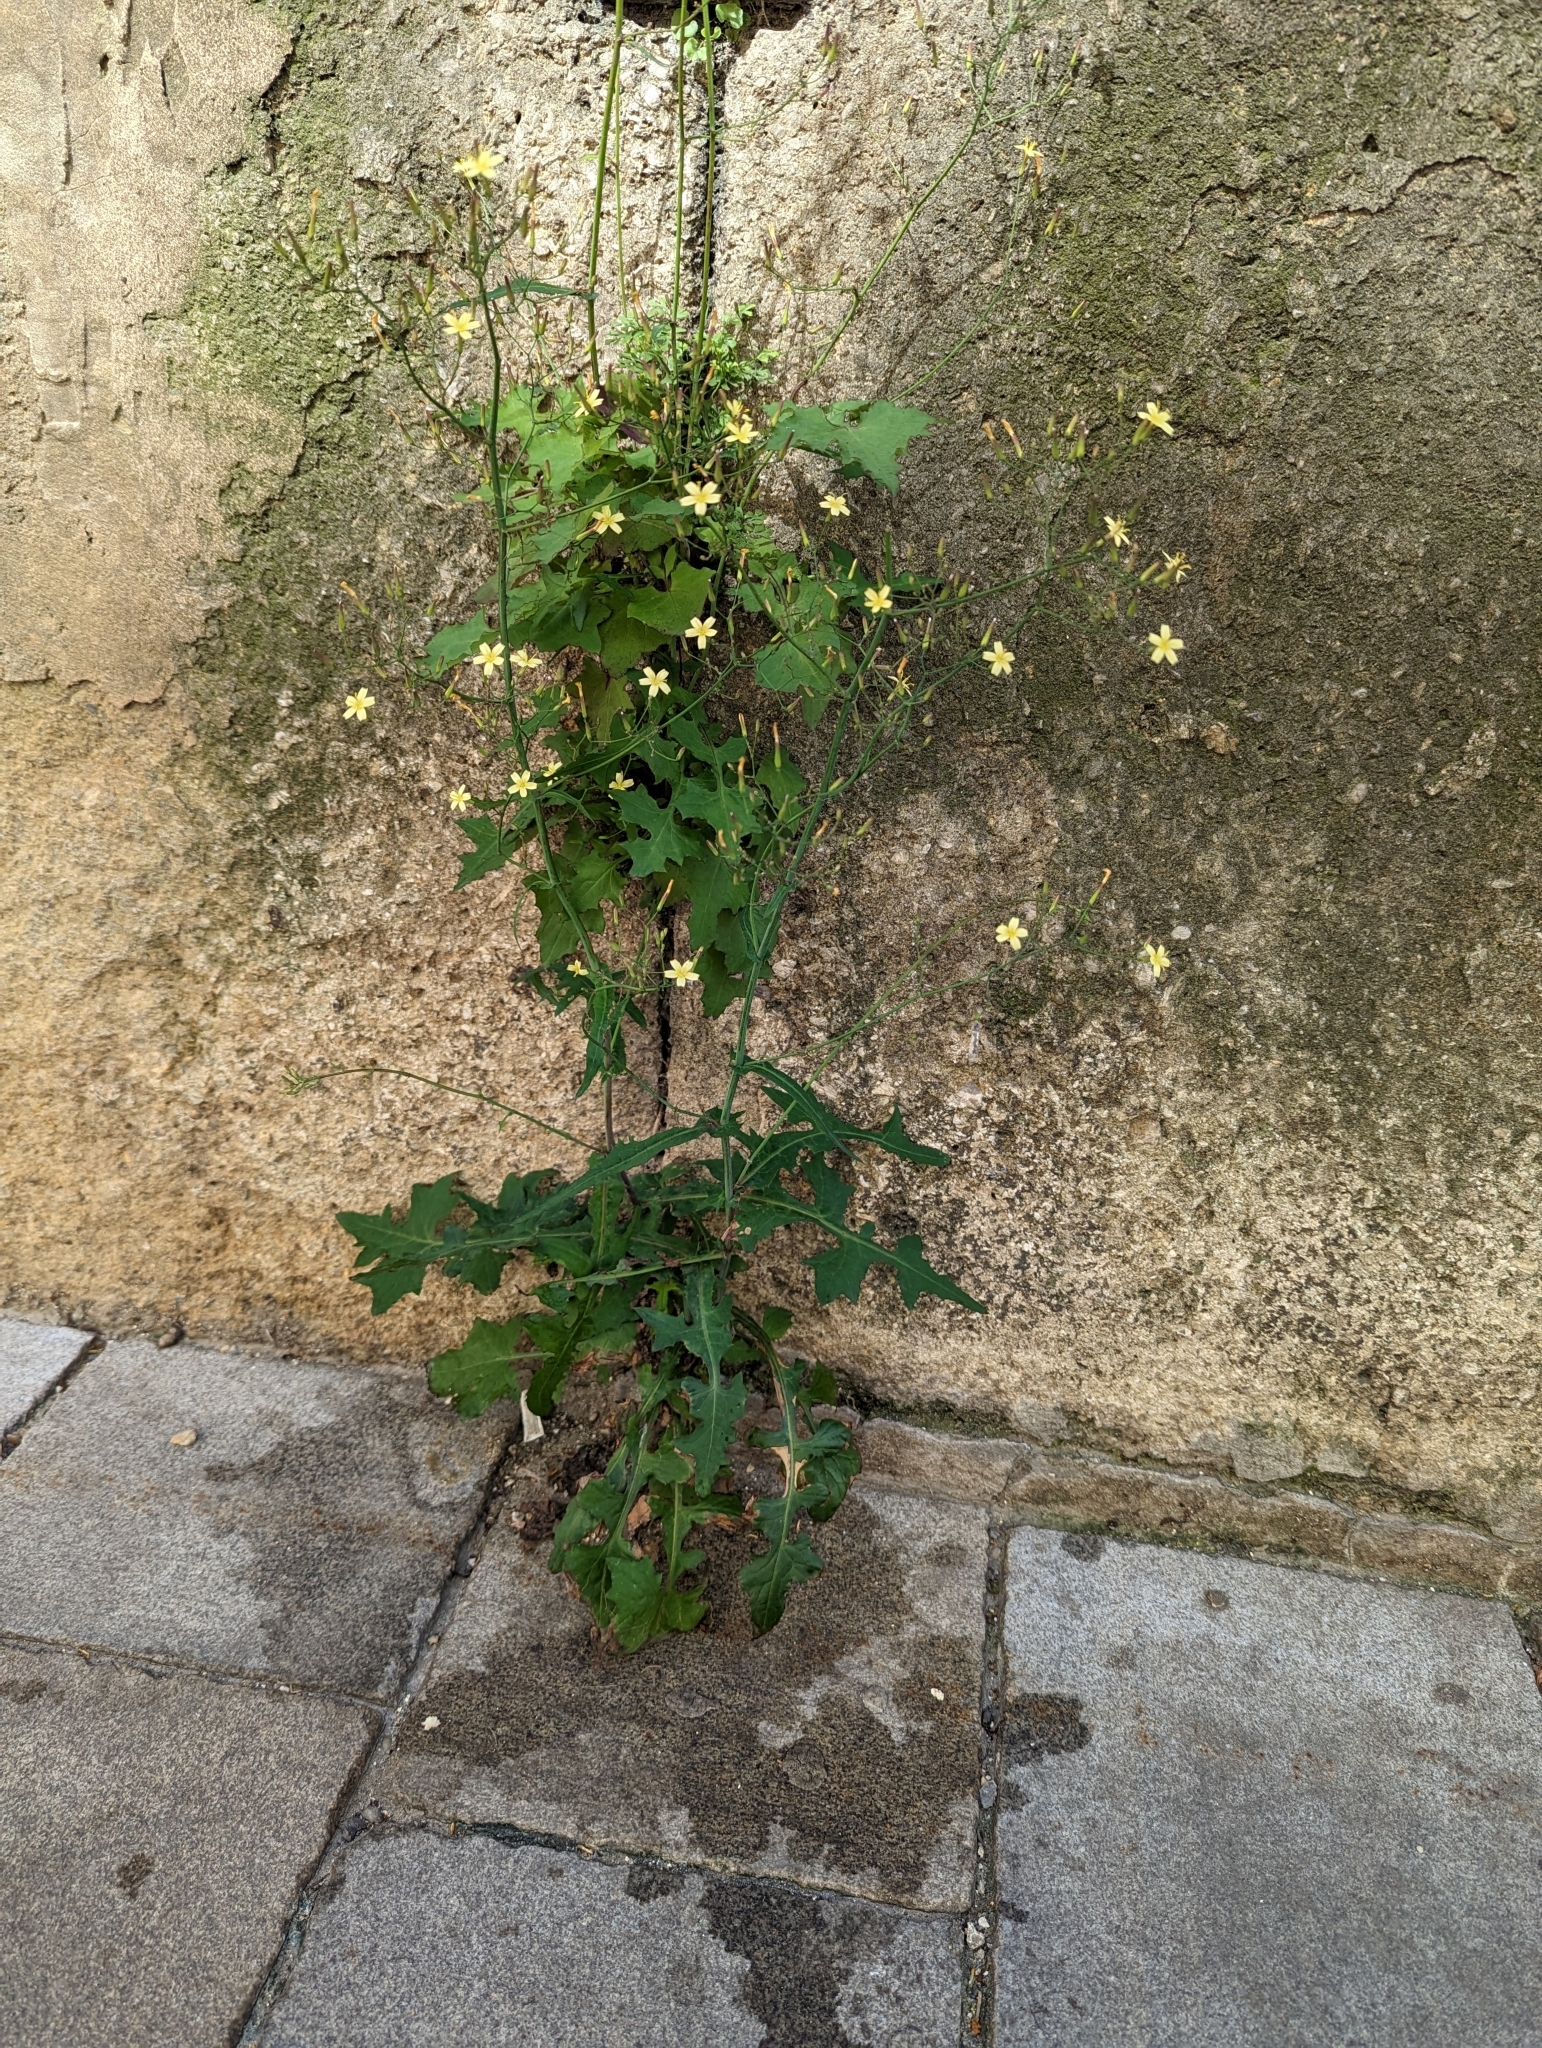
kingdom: Plantae
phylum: Tracheophyta
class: Magnoliopsida
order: Asterales
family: Asteraceae
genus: Mycelis
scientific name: Mycelis muralis
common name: Wall lettuce
